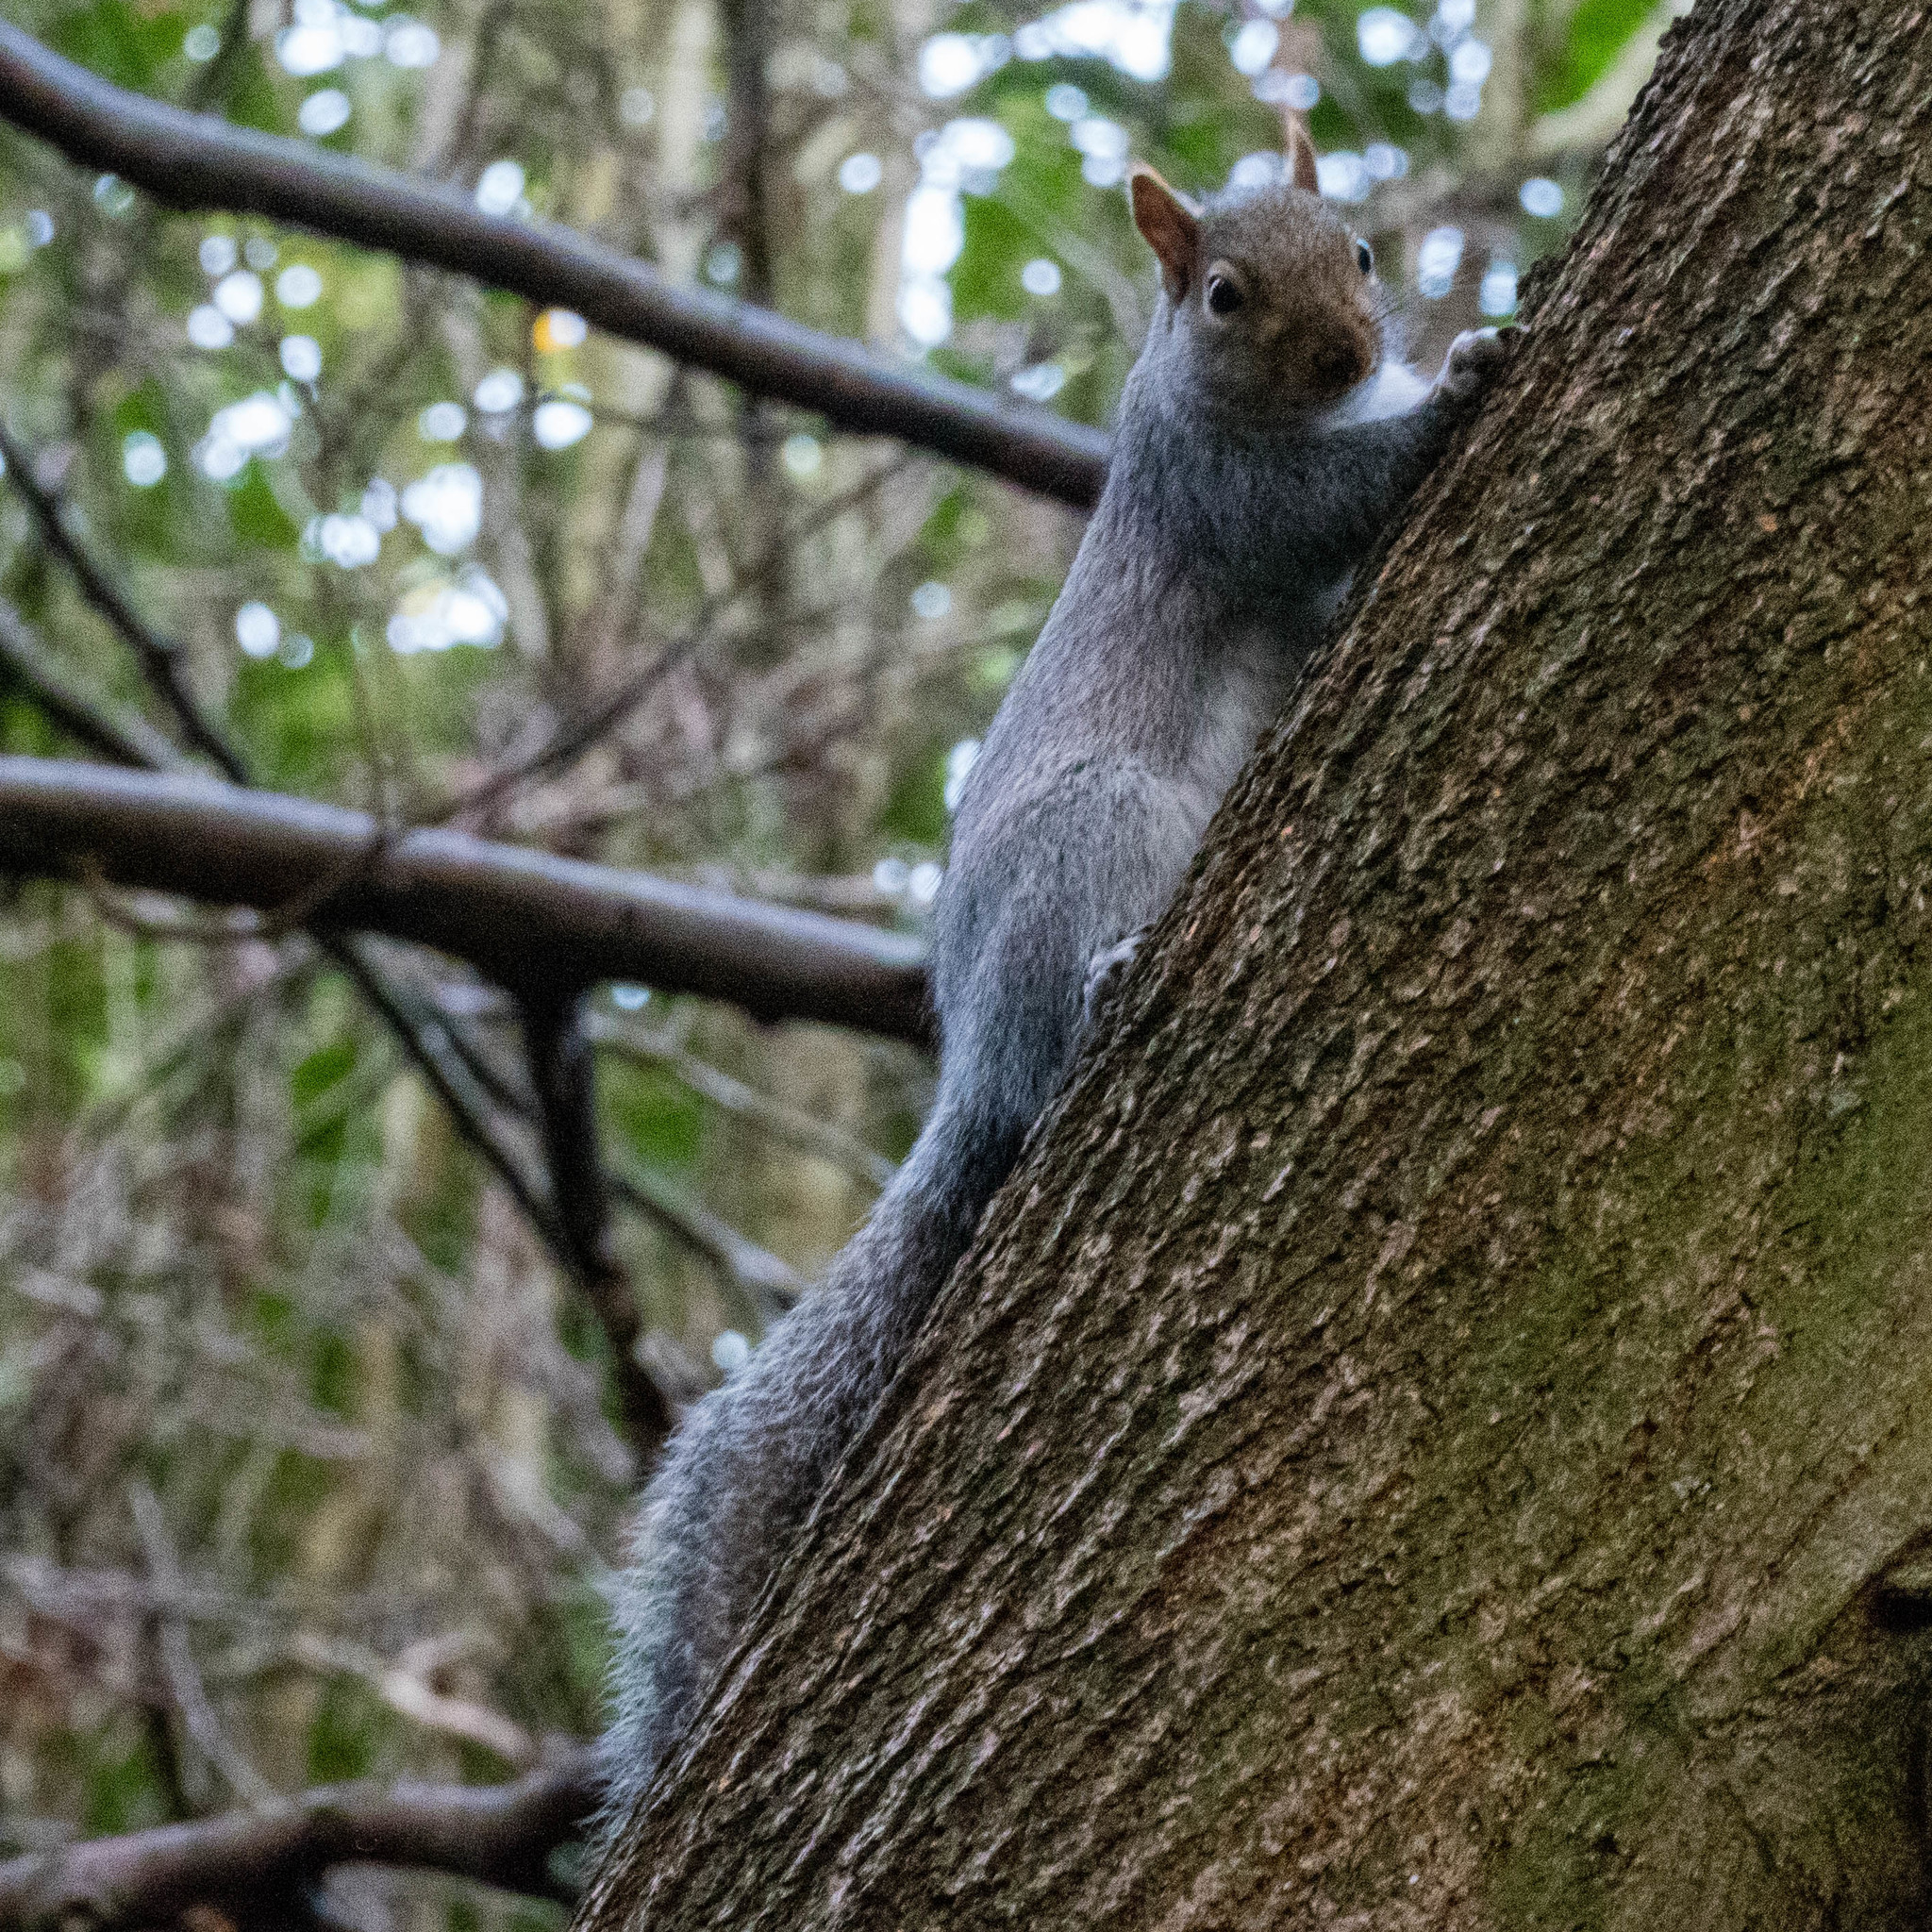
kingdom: Animalia
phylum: Chordata
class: Mammalia
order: Rodentia
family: Sciuridae
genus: Sciurus
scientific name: Sciurus carolinensis
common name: Eastern gray squirrel
